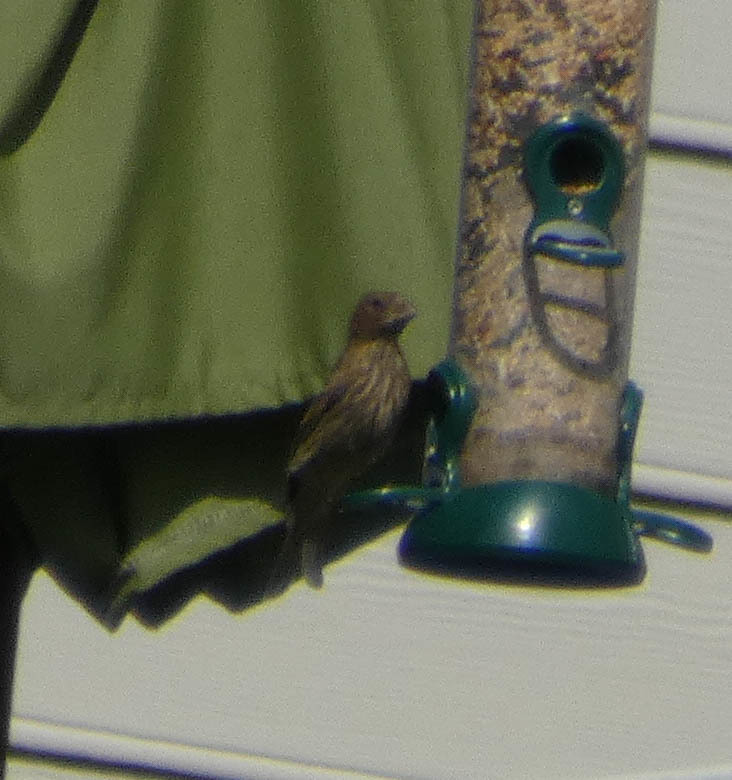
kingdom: Animalia
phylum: Chordata
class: Aves
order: Passeriformes
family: Fringillidae
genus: Haemorhous
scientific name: Haemorhous mexicanus
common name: House finch
